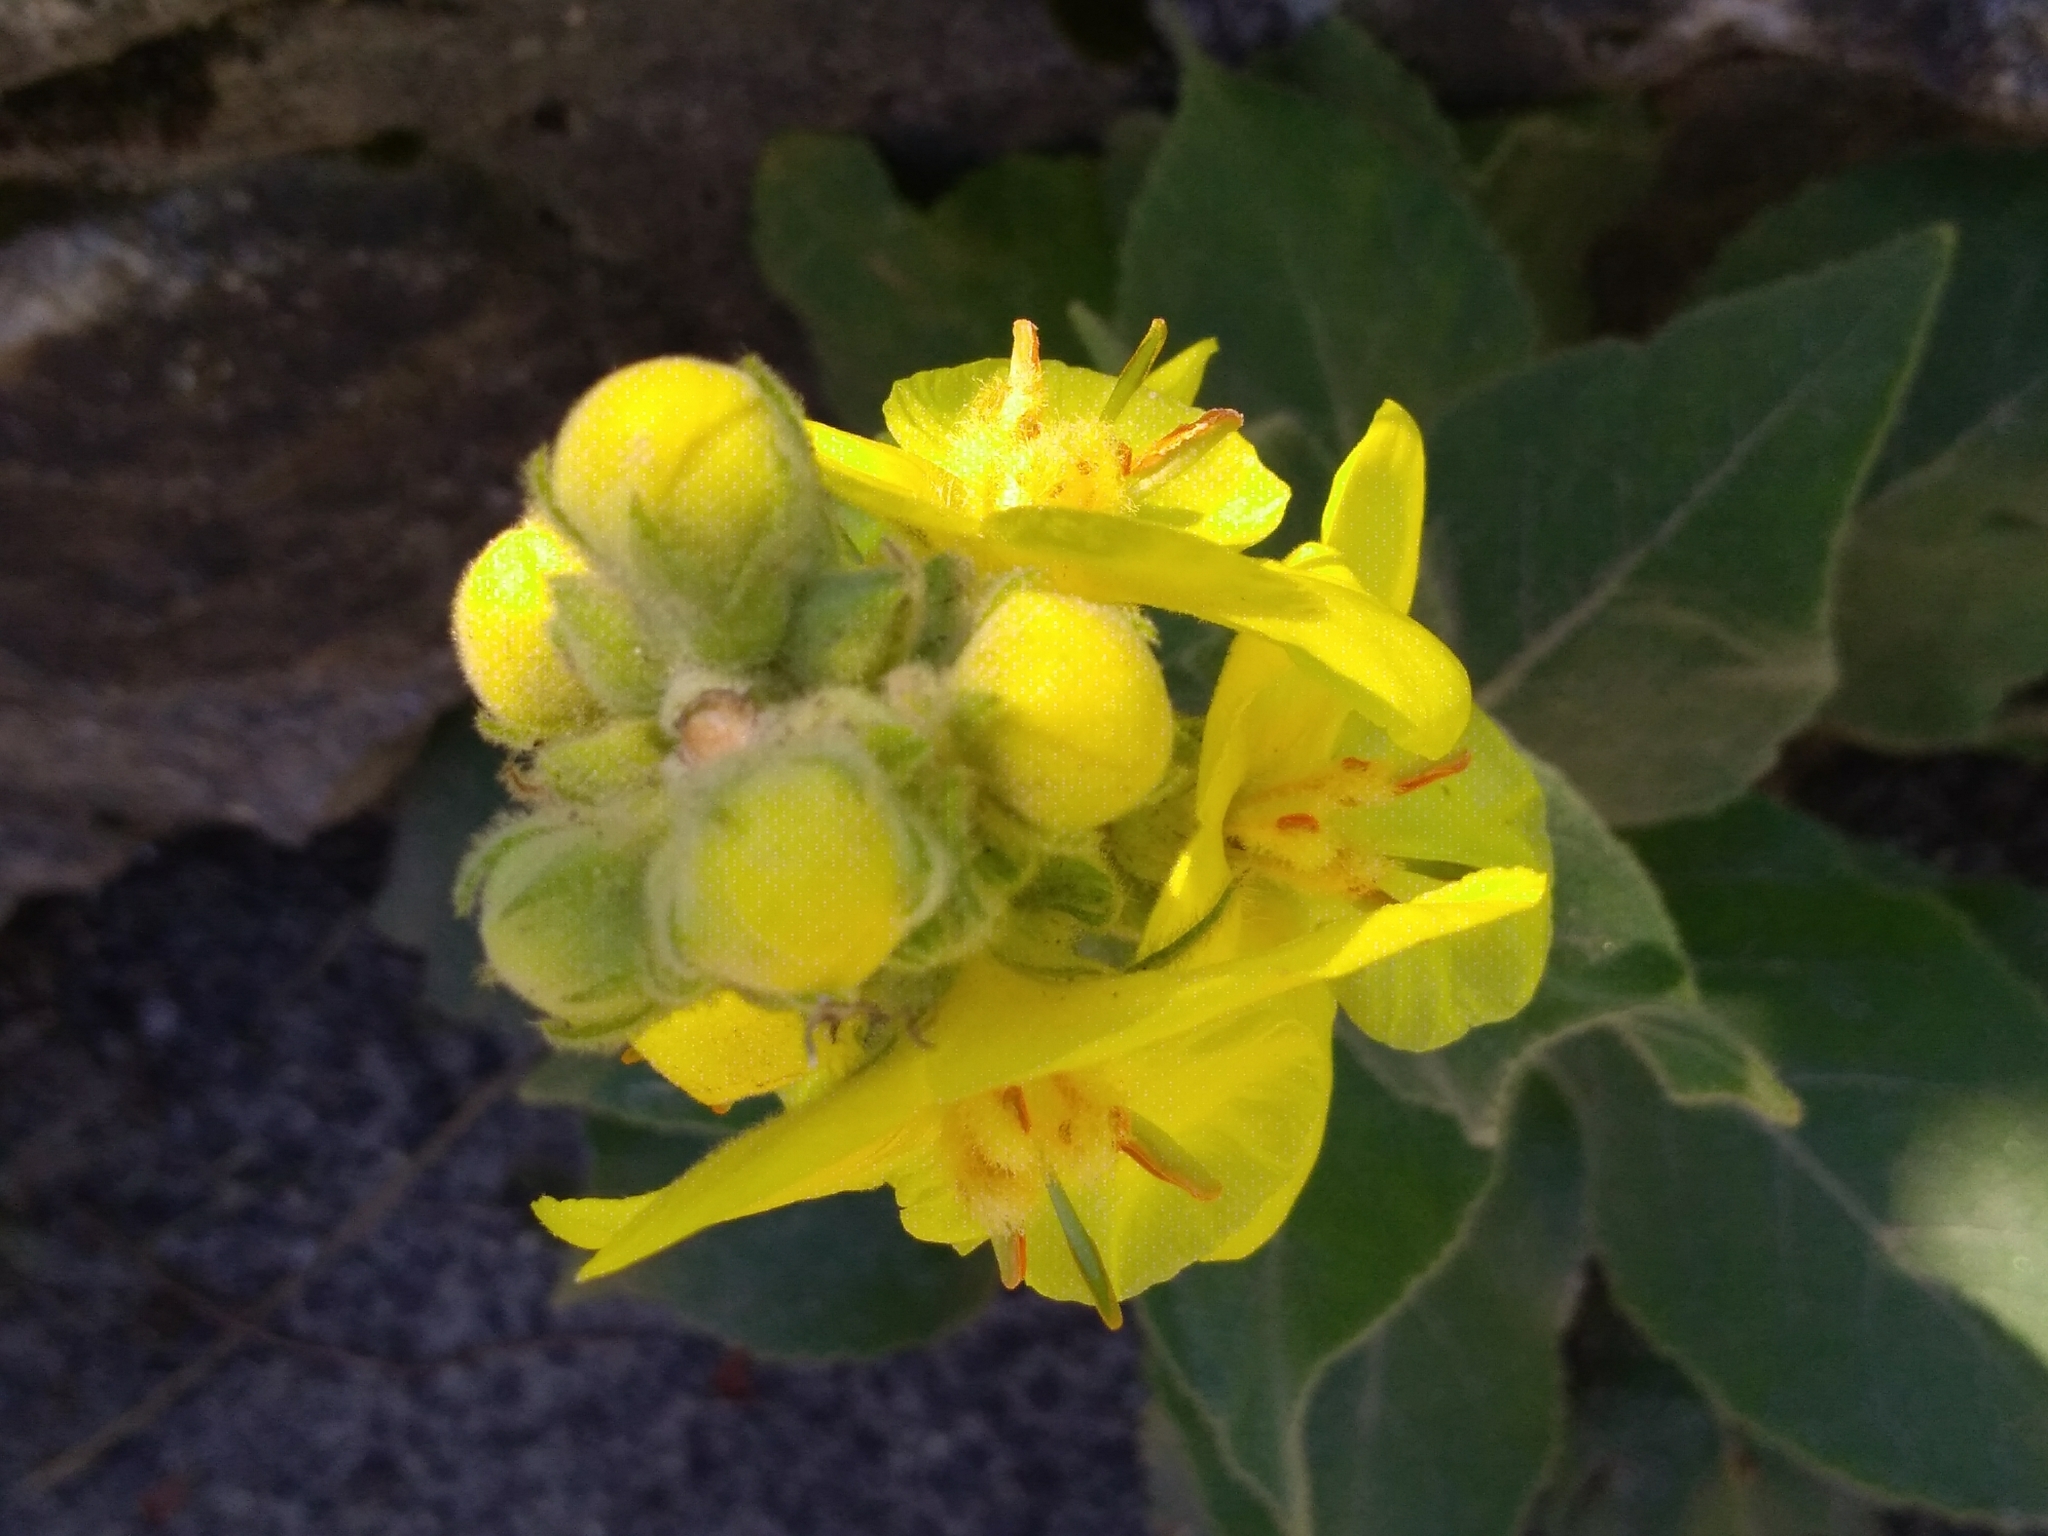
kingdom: Plantae
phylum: Tracheophyta
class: Magnoliopsida
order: Lamiales
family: Scrophulariaceae
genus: Verbascum
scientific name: Verbascum densiflorum
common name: Dense-flowered mullein
